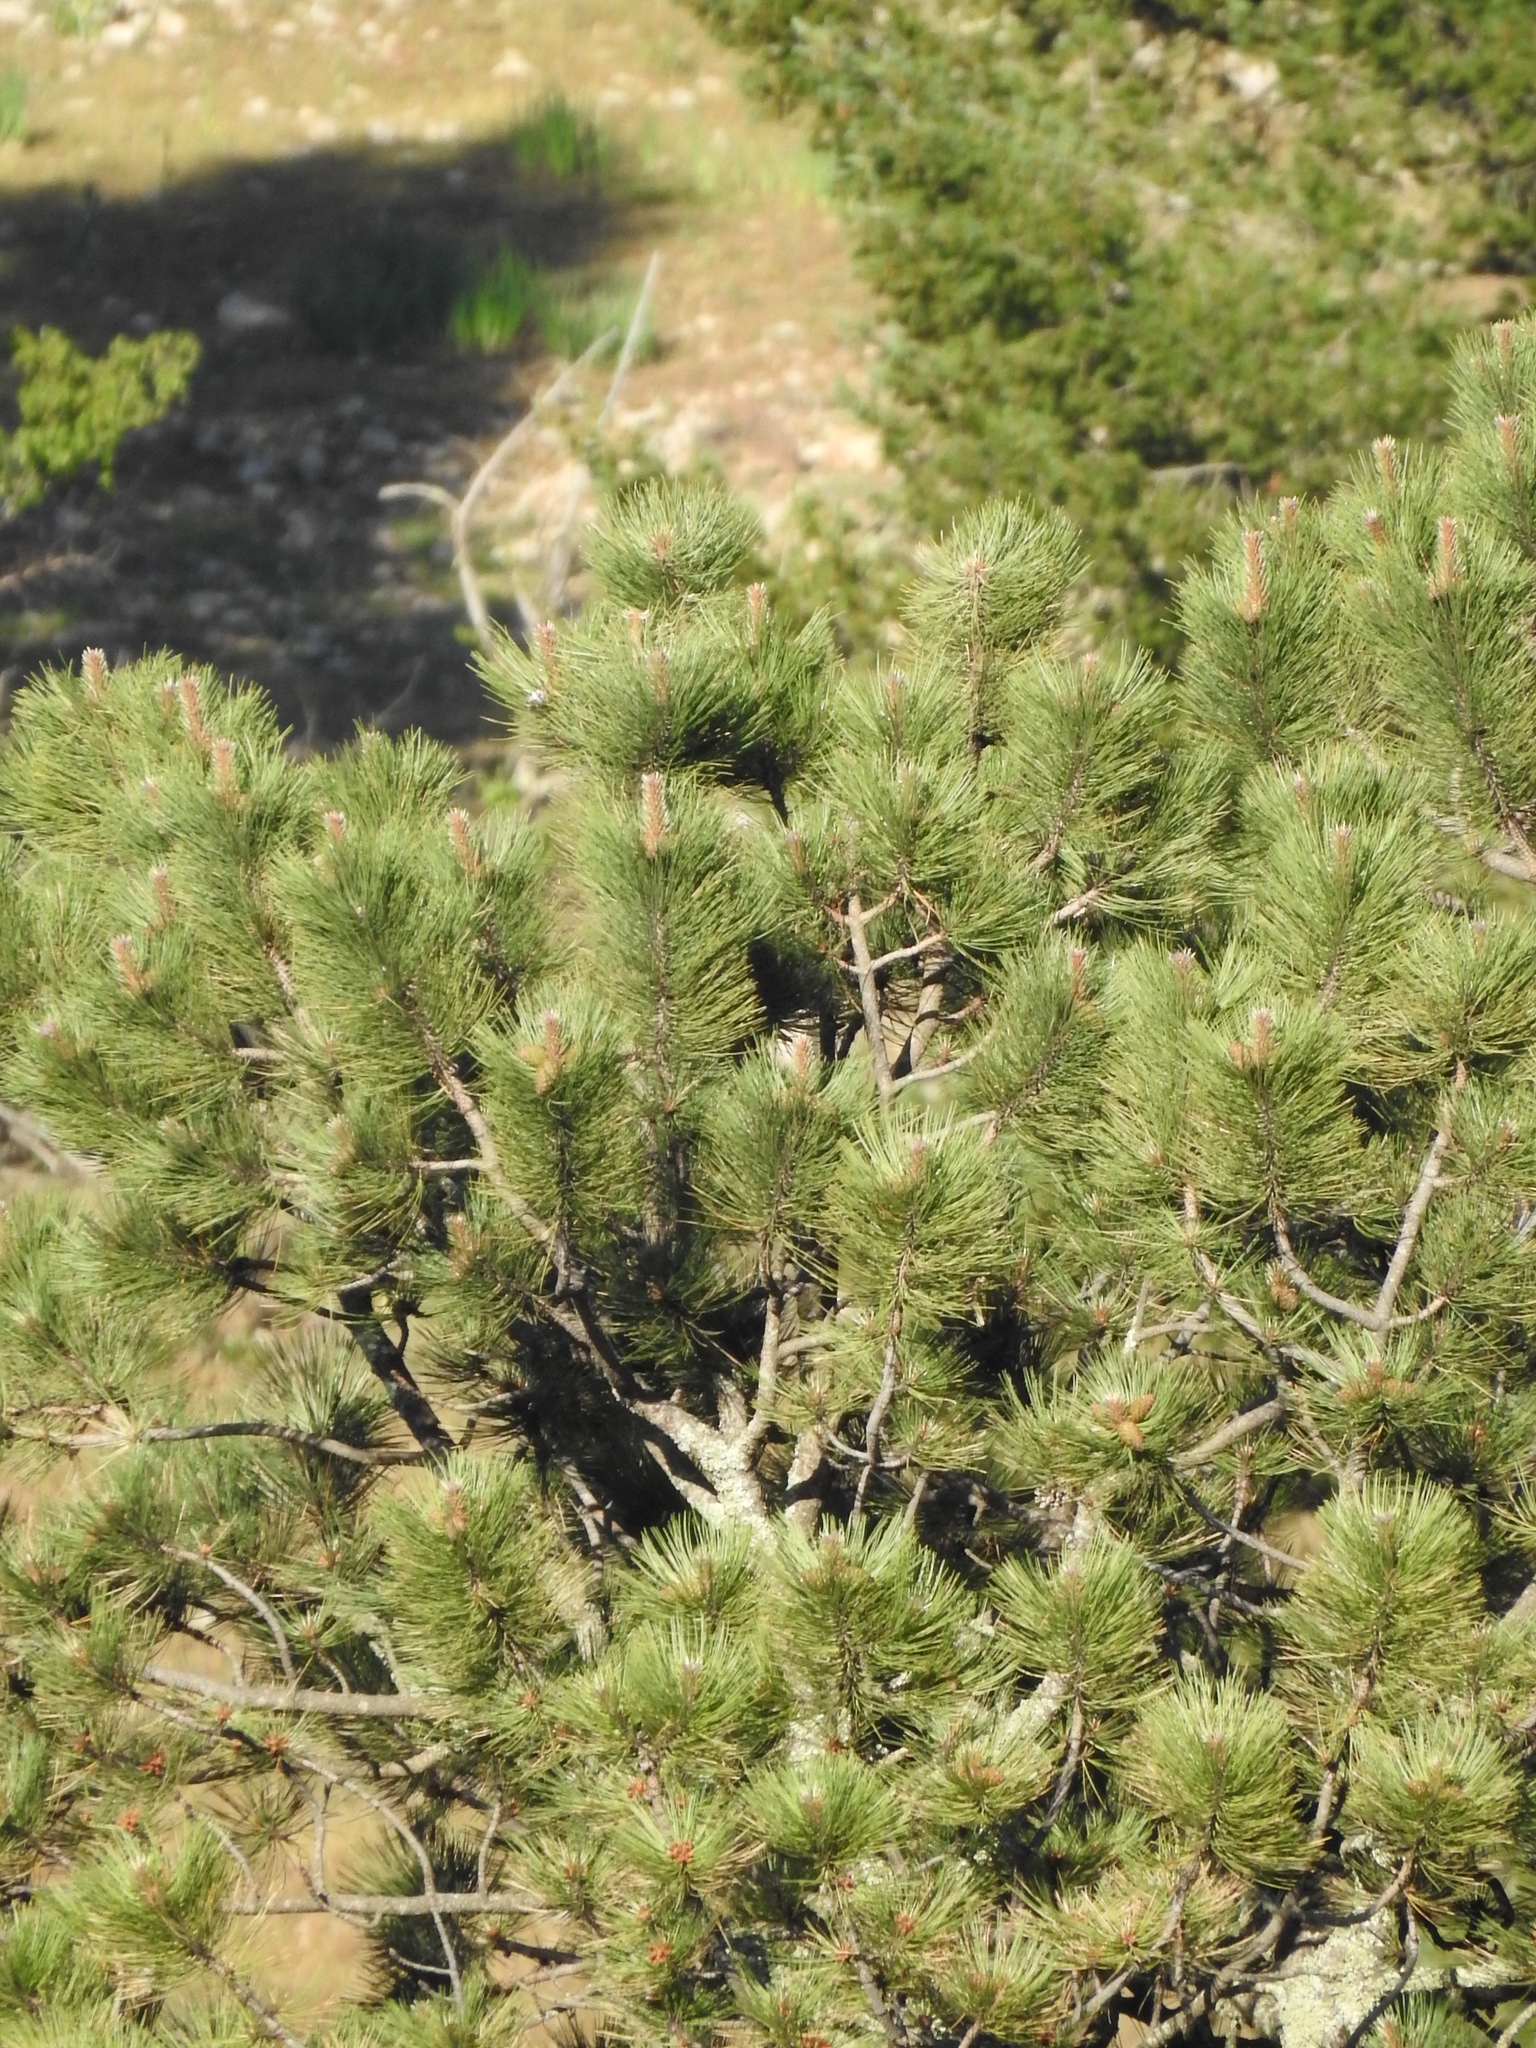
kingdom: Plantae
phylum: Tracheophyta
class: Pinopsida
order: Pinales
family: Pinaceae
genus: Pinus
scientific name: Pinus ponderosa
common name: Western yellow-pine
